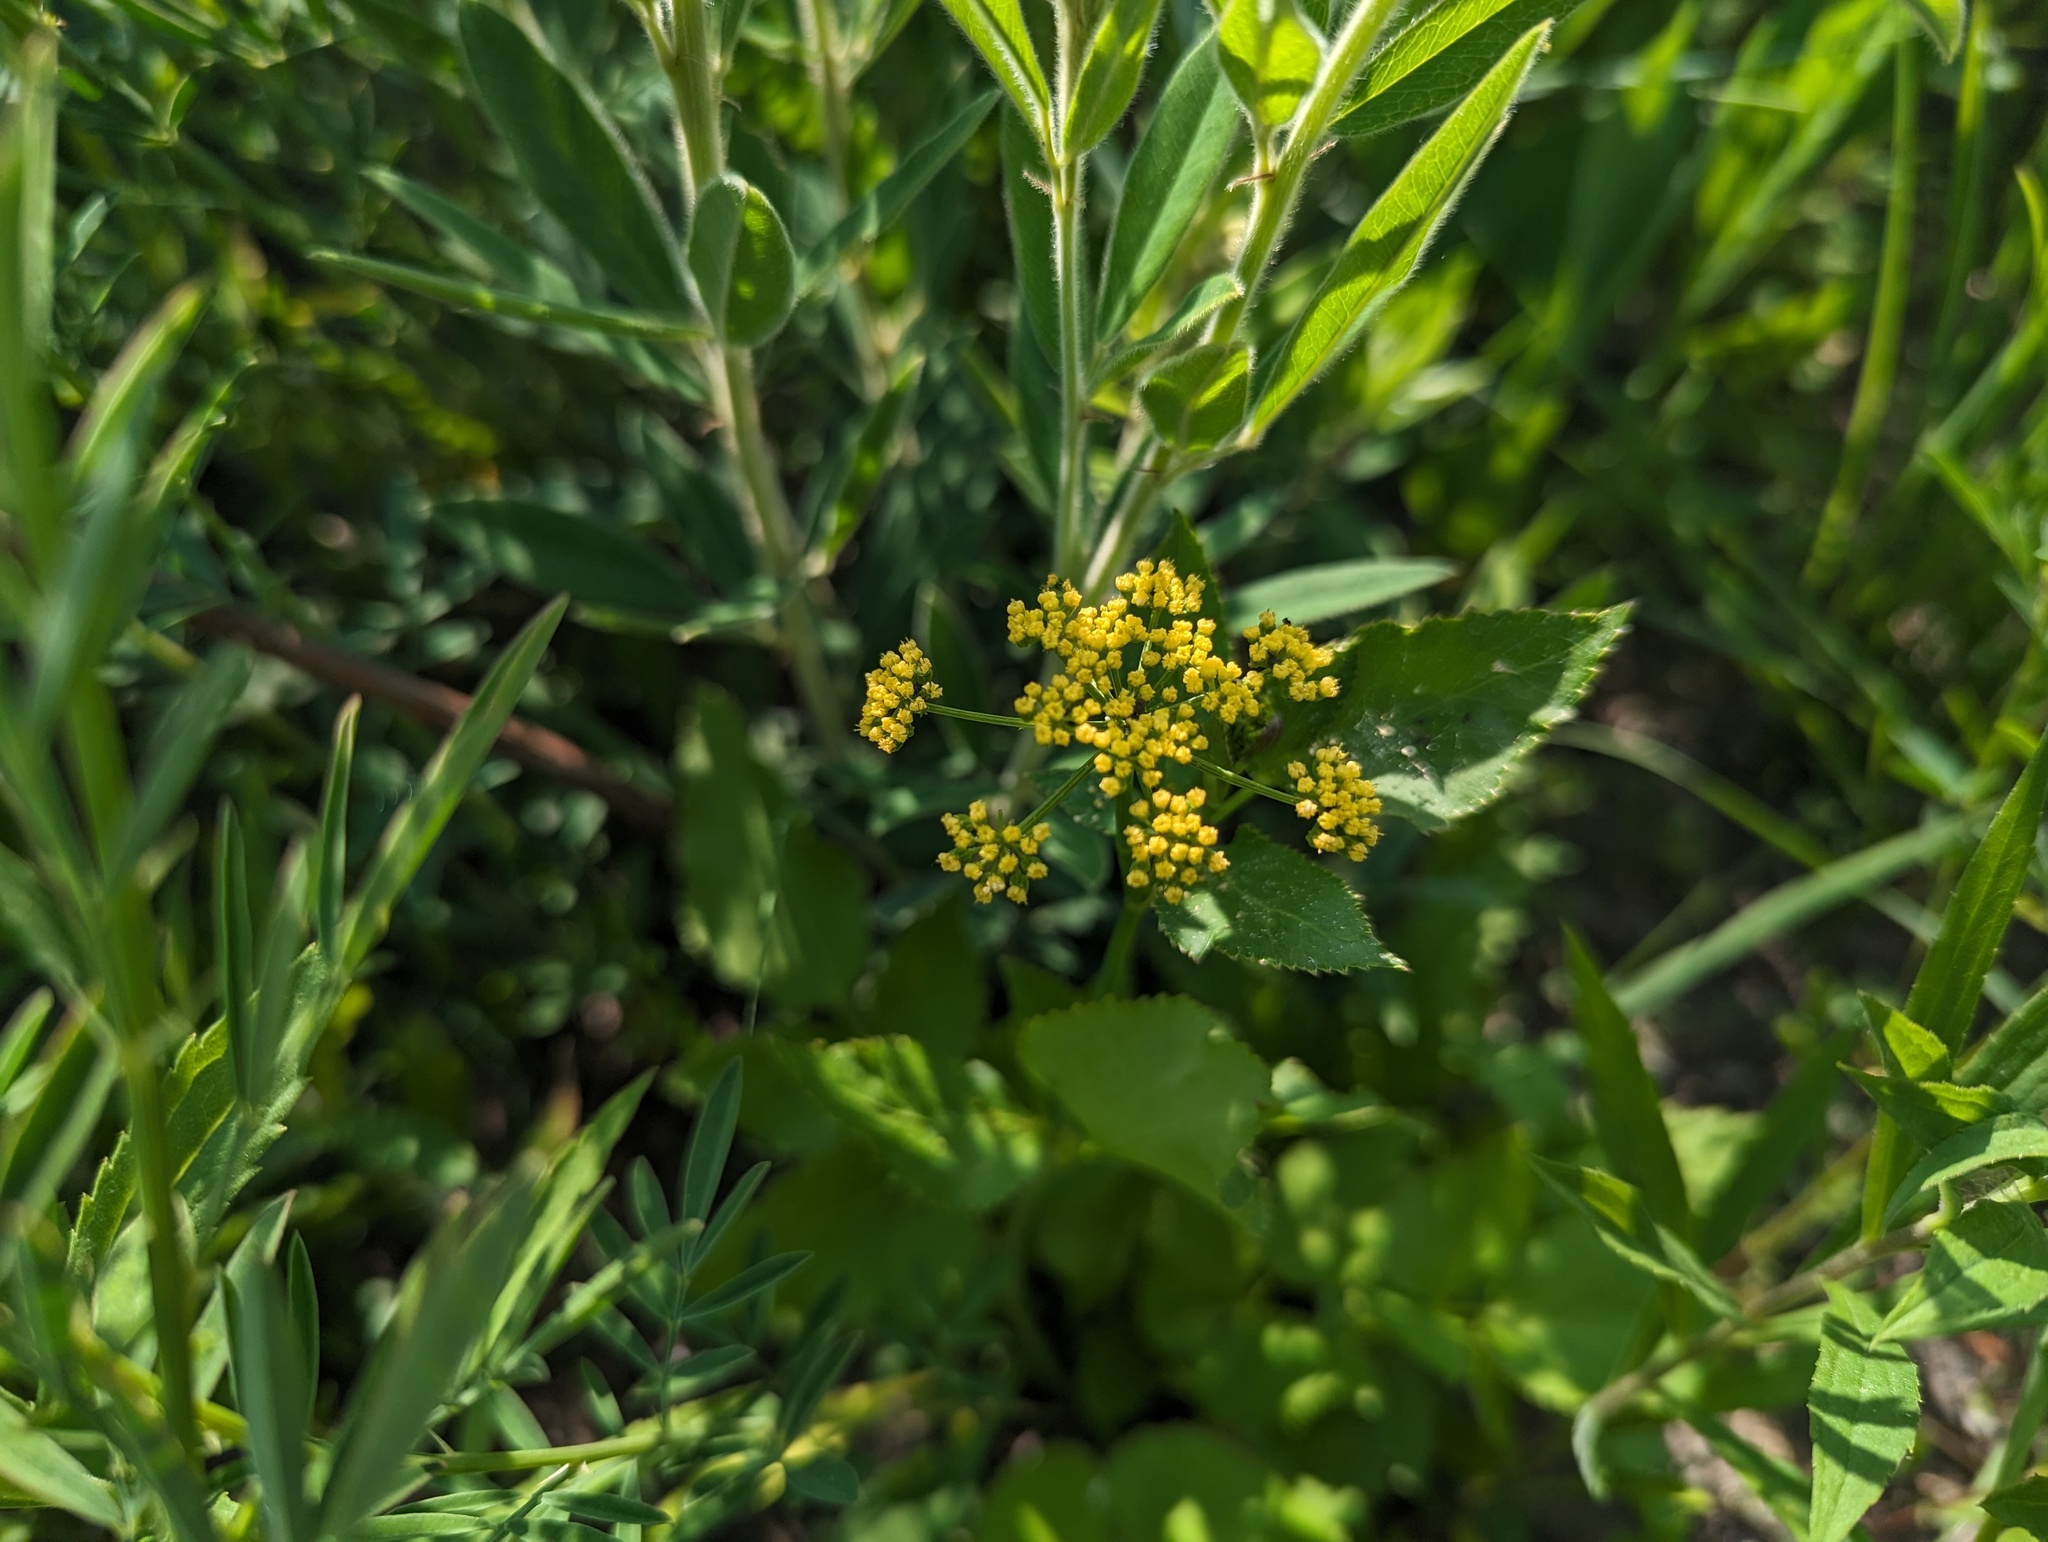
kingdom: Plantae
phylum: Tracheophyta
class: Magnoliopsida
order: Apiales
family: Apiaceae
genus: Zizia
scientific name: Zizia aptera
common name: Heart-leaved alexanders
